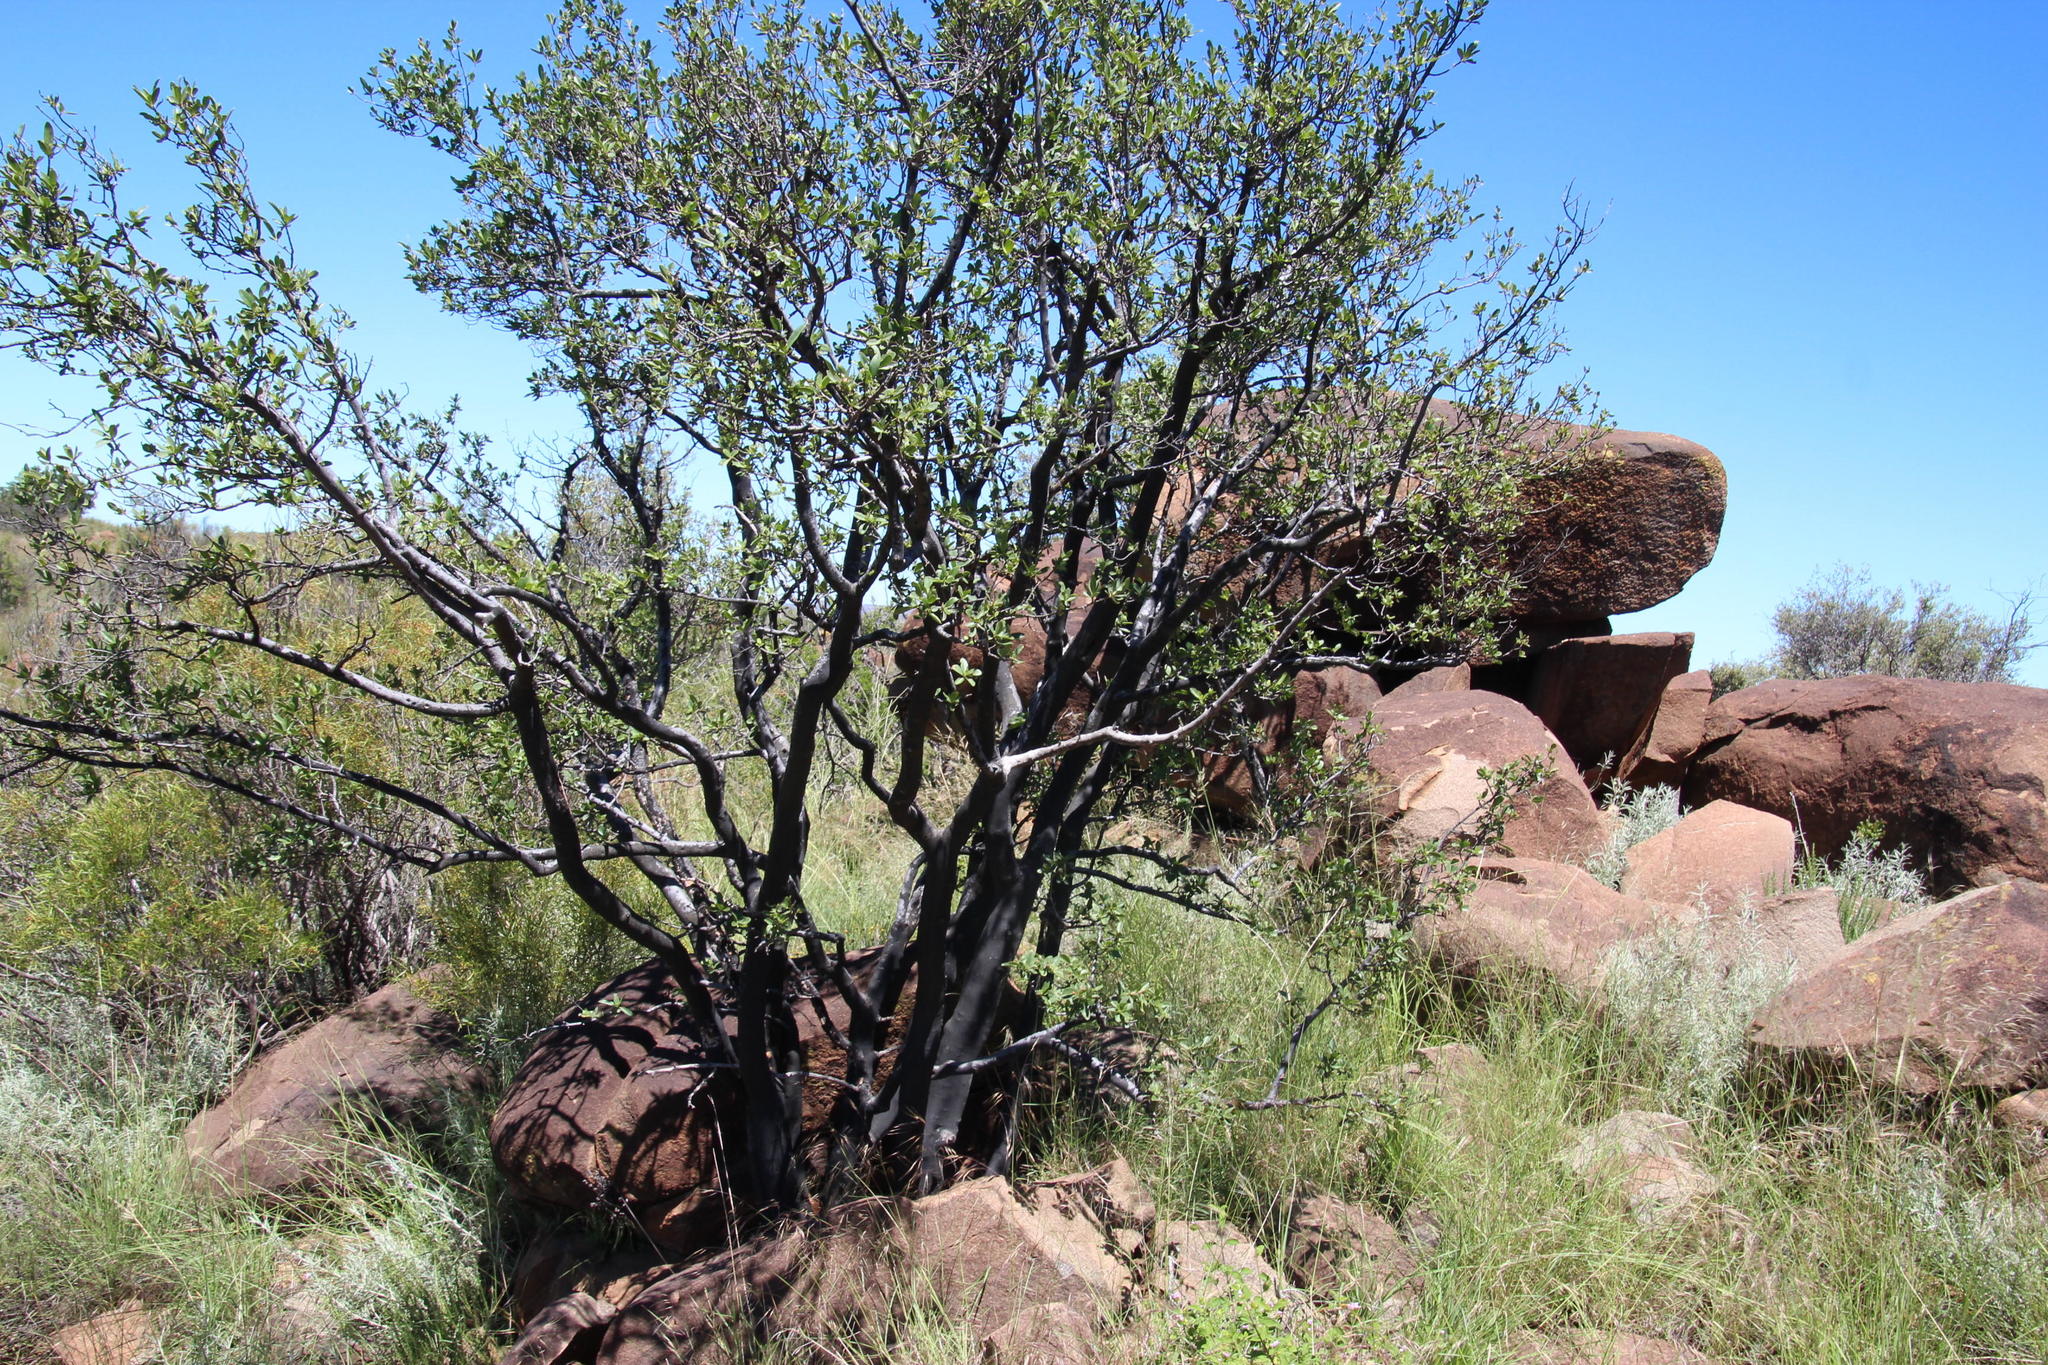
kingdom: Plantae
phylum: Tracheophyta
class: Magnoliopsida
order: Ericales
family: Ebenaceae
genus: Diospyros
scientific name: Diospyros lycioides
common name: Red star apple
